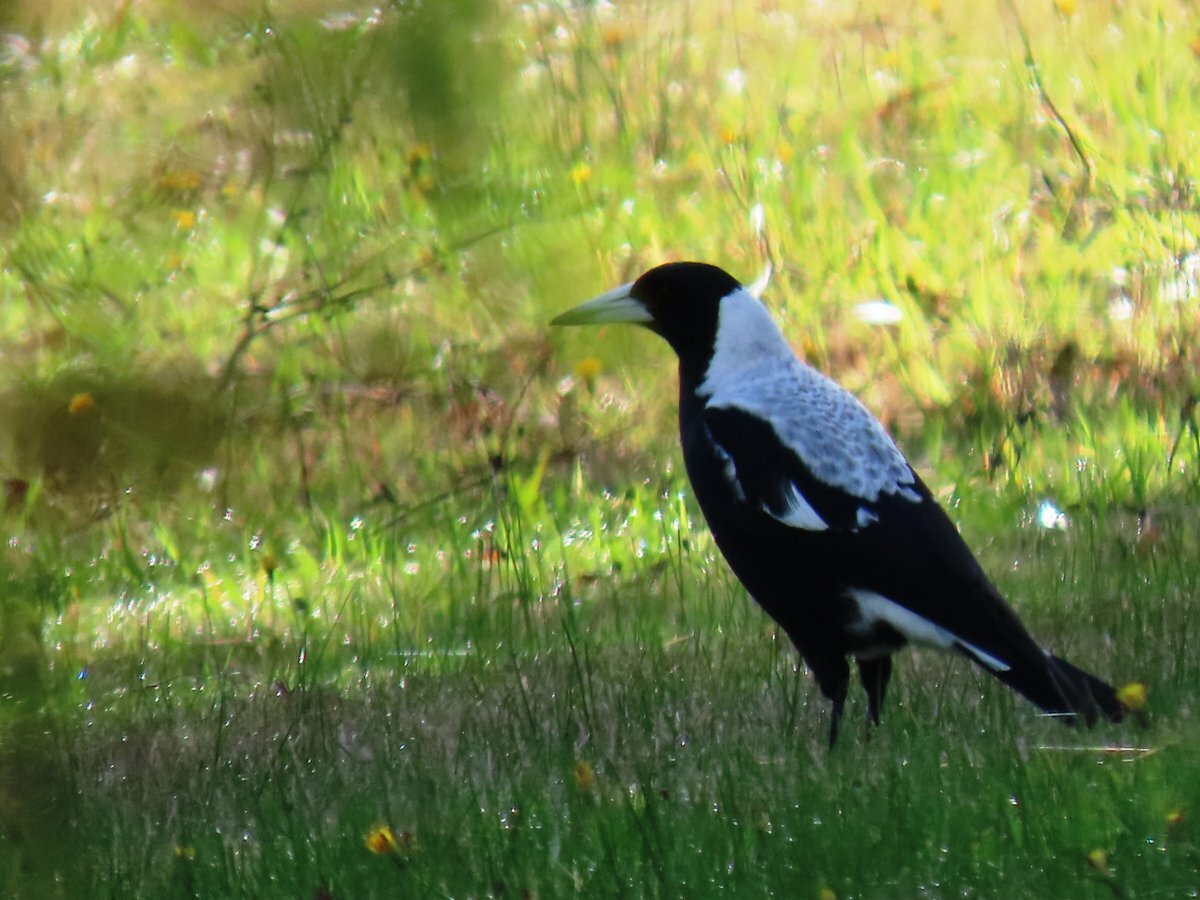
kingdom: Animalia
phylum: Chordata
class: Aves
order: Passeriformes
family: Cracticidae
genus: Gymnorhina
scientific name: Gymnorhina tibicen
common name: Australian magpie
